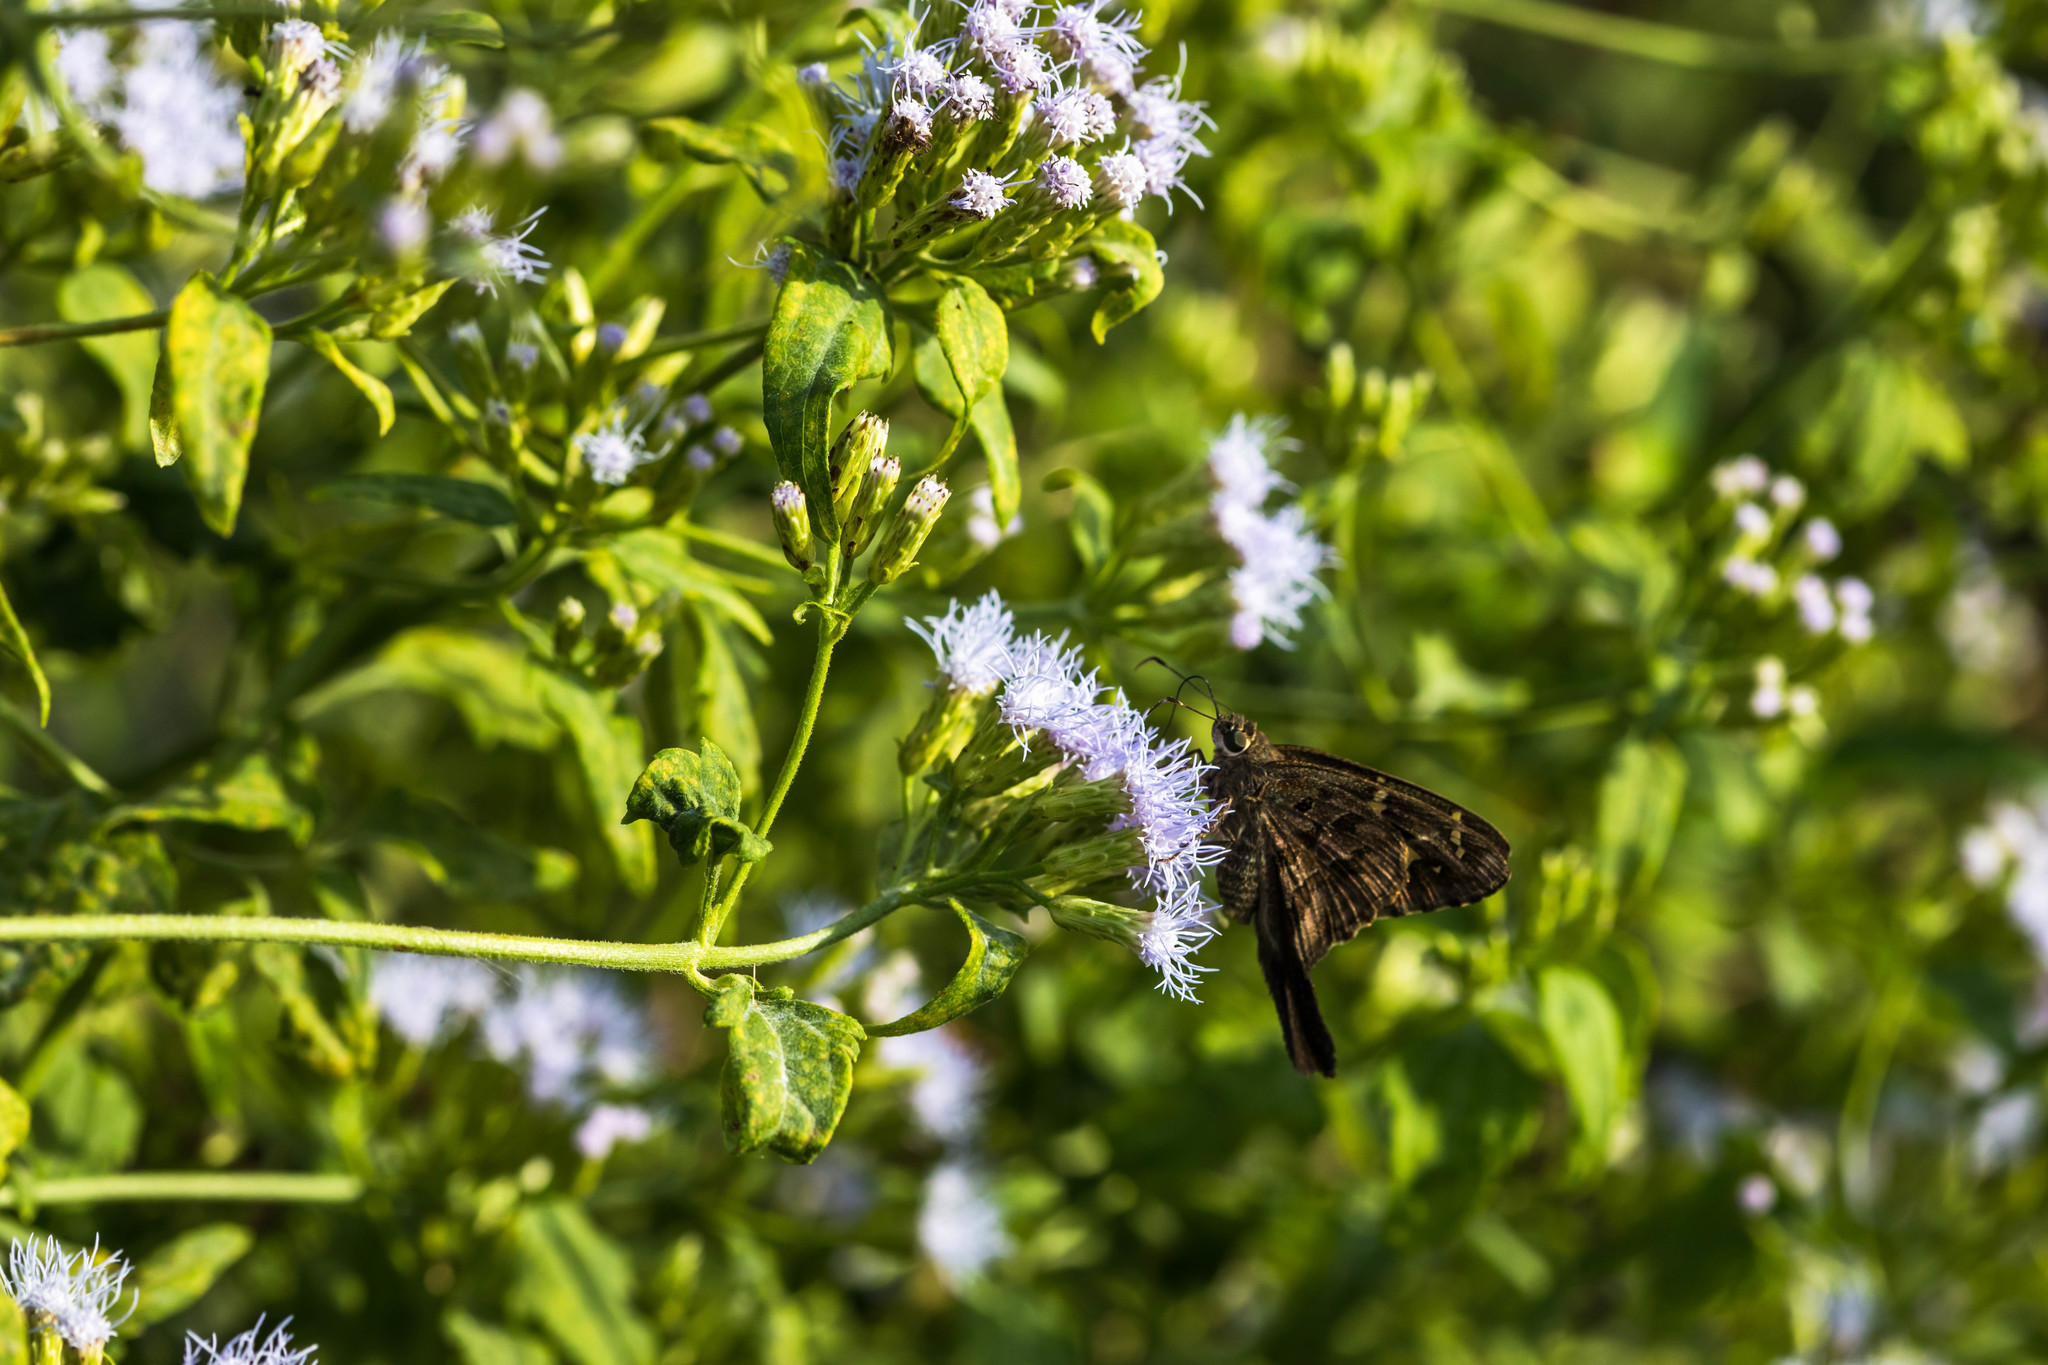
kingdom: Animalia
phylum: Arthropoda
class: Insecta
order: Lepidoptera
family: Hesperiidae
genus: Thorybes
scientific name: Thorybes
